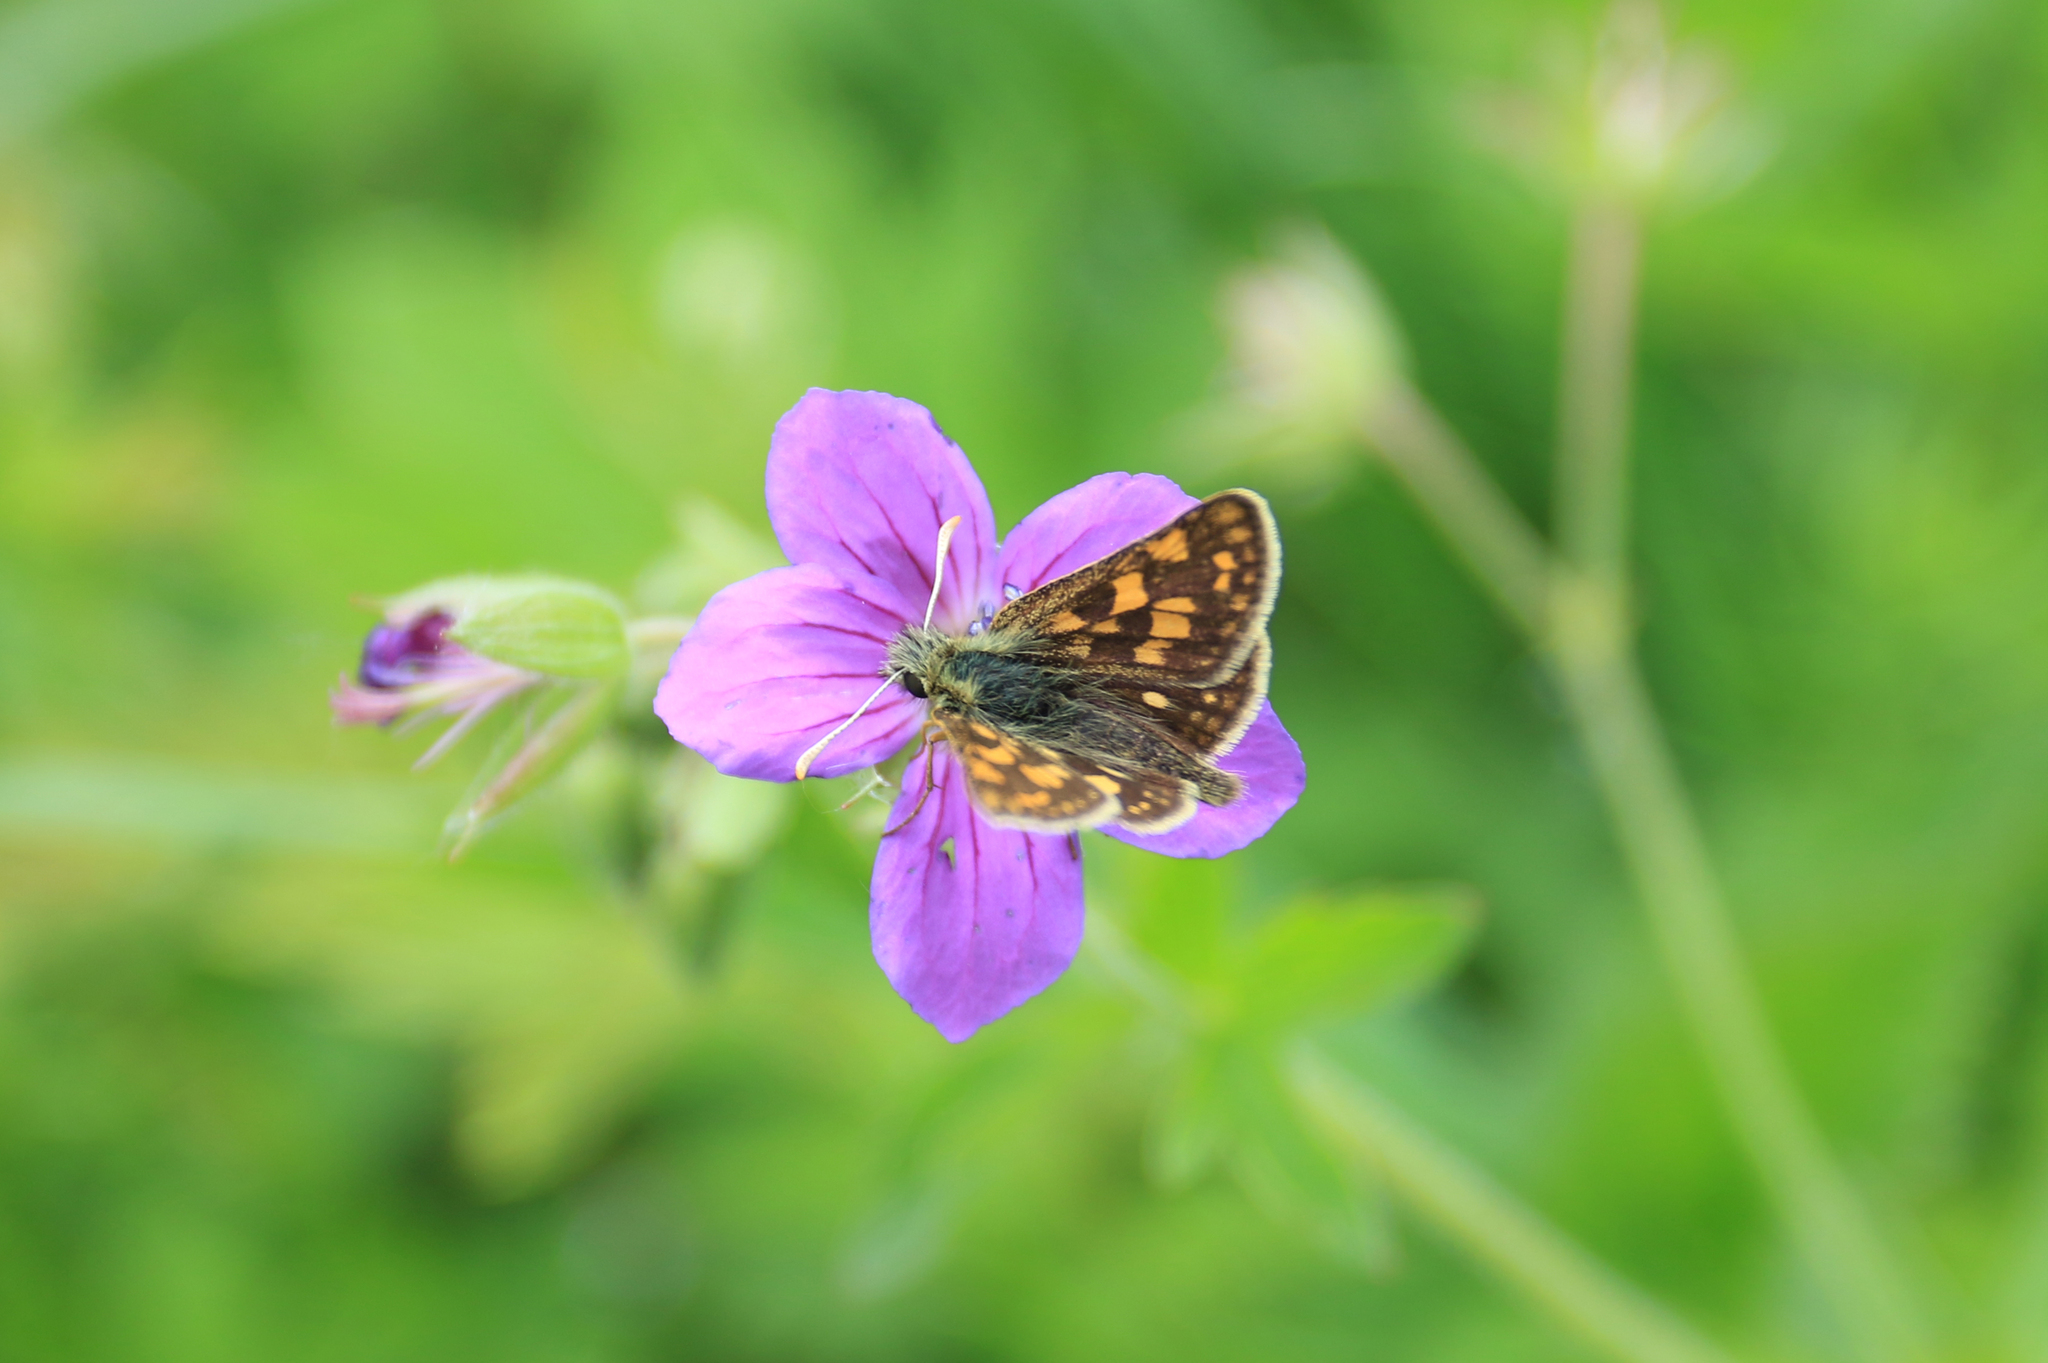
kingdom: Animalia
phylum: Arthropoda
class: Insecta
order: Lepidoptera
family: Hesperiidae
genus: Carterocephalus
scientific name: Carterocephalus palaemon
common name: Chequered skipper
